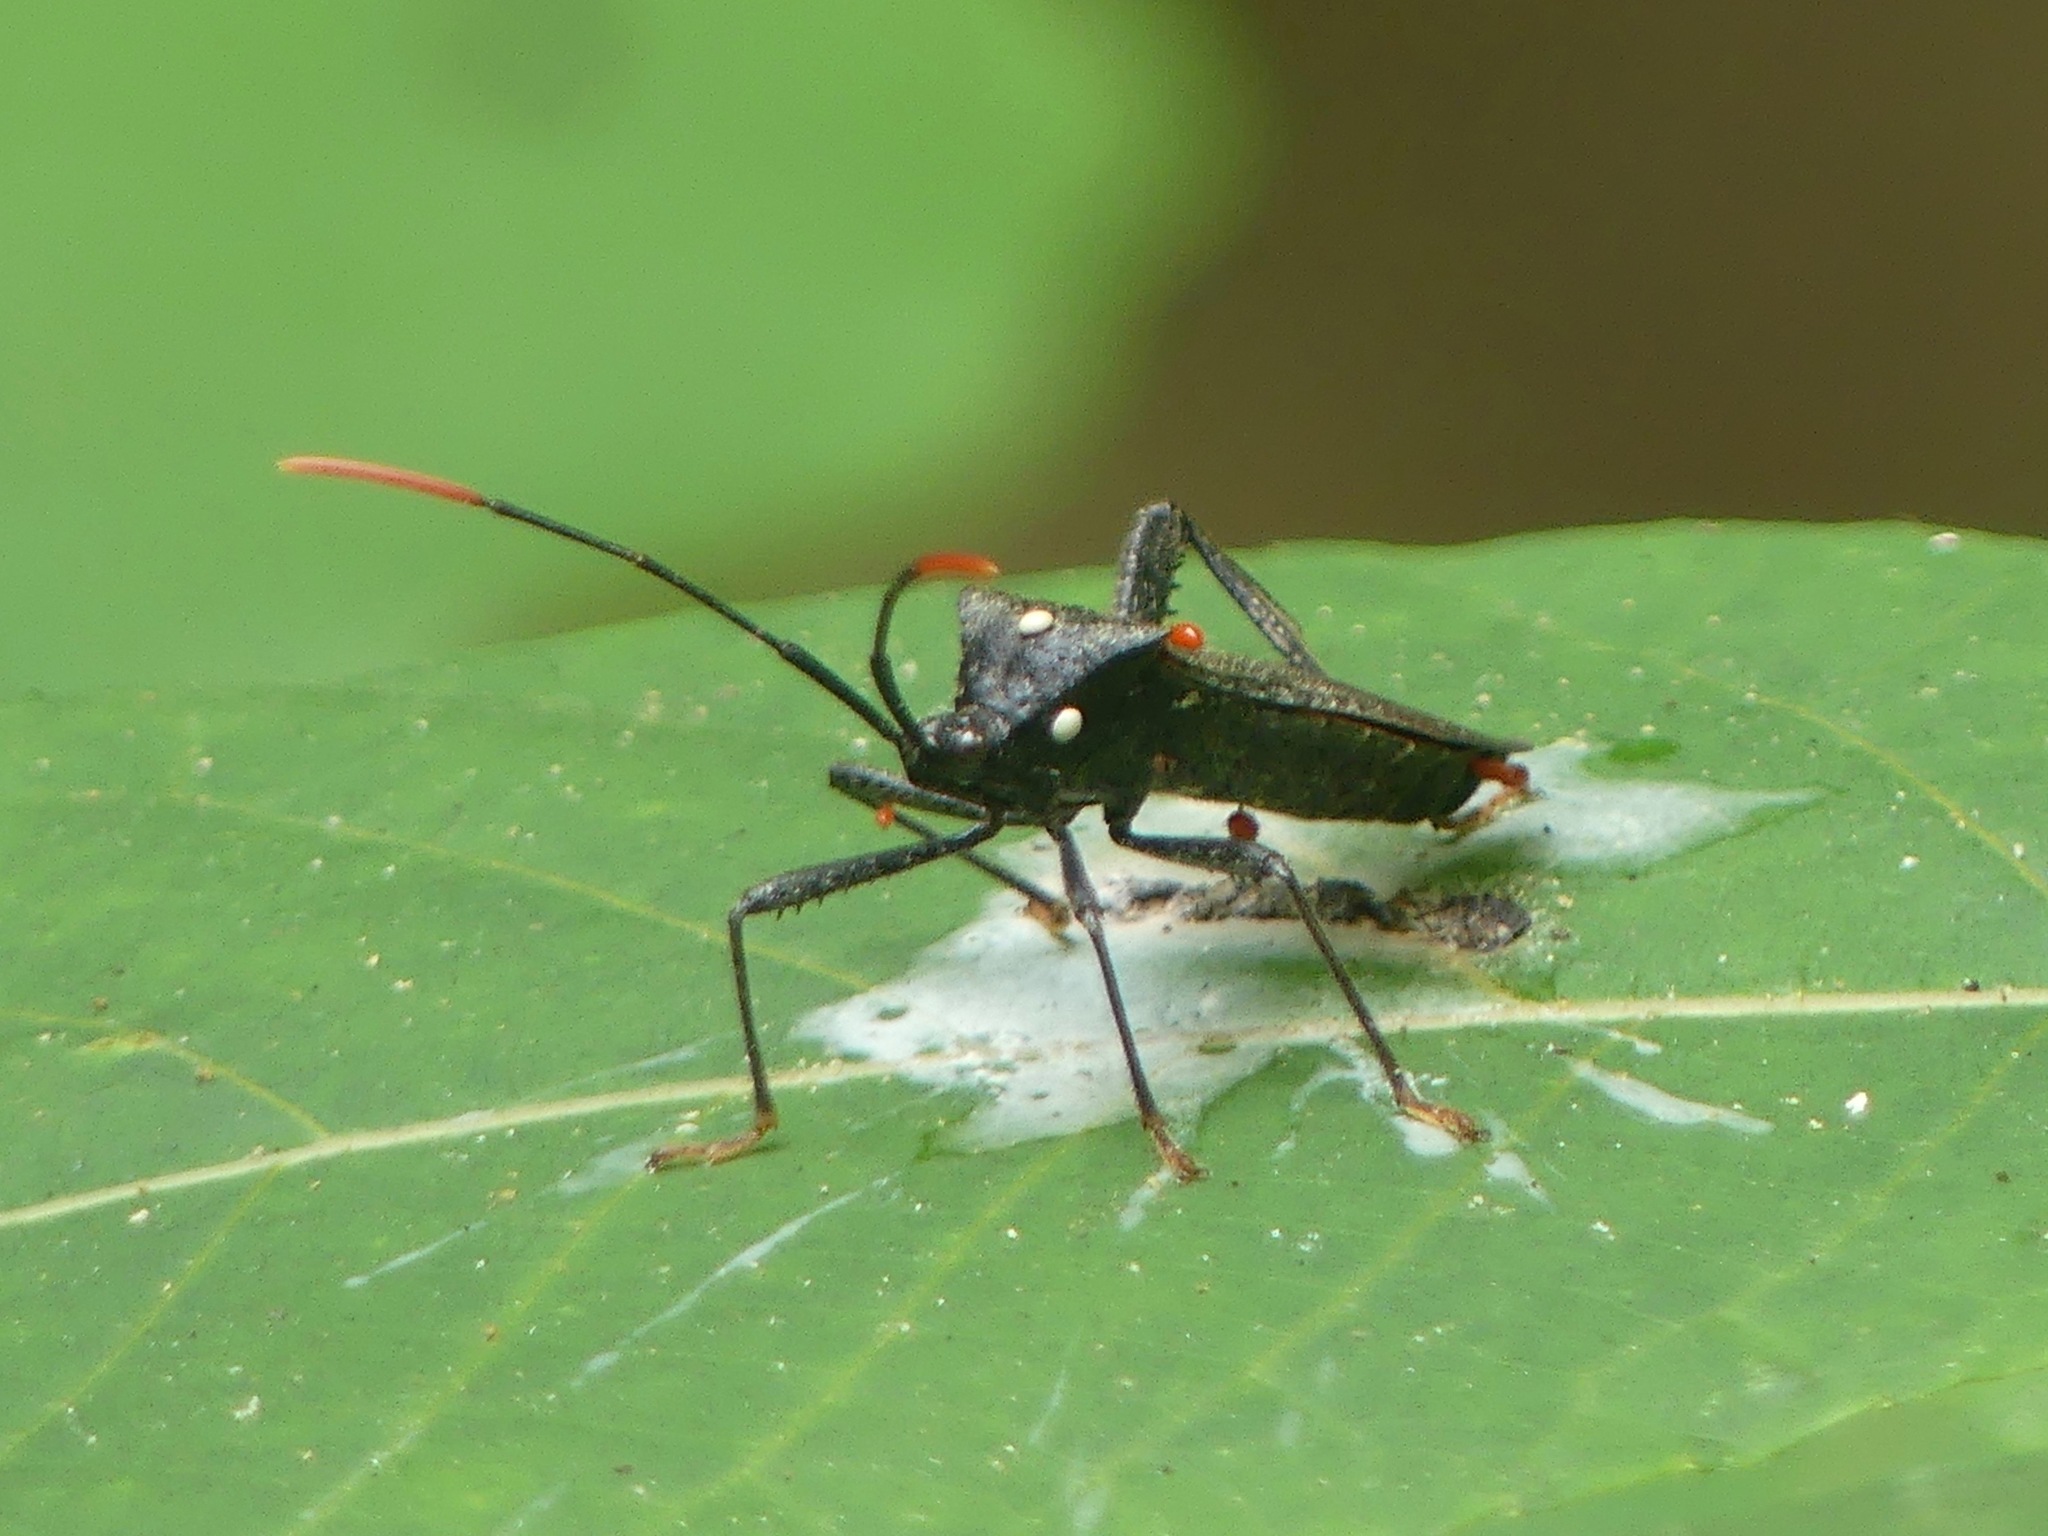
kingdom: Animalia
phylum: Arthropoda
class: Insecta
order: Hemiptera
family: Coreidae
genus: Acanthocephala
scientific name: Acanthocephala terminalis
